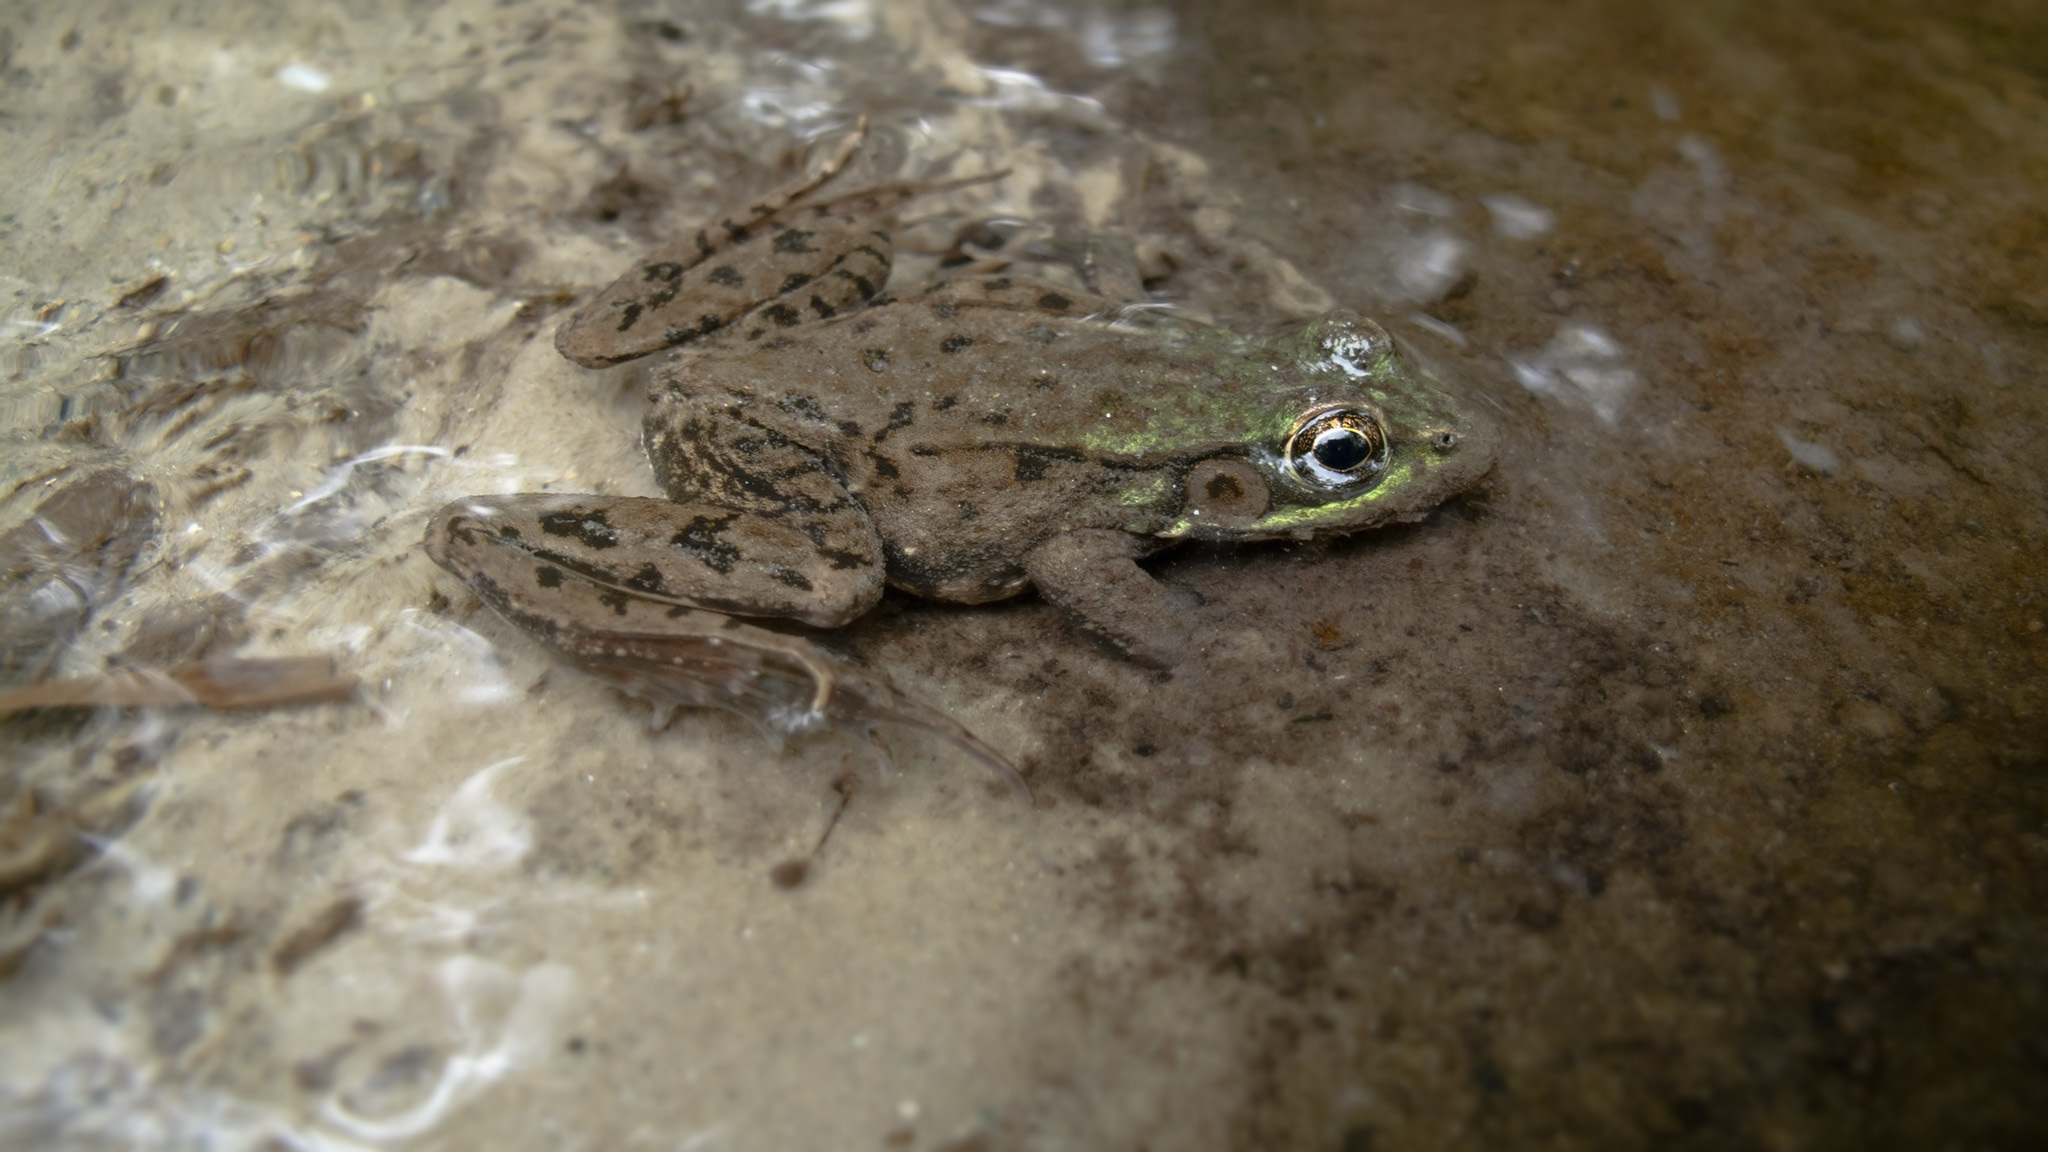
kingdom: Animalia
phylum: Chordata
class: Amphibia
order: Anura
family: Ranidae
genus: Lithobates
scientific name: Lithobates clamitans
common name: Green frog
